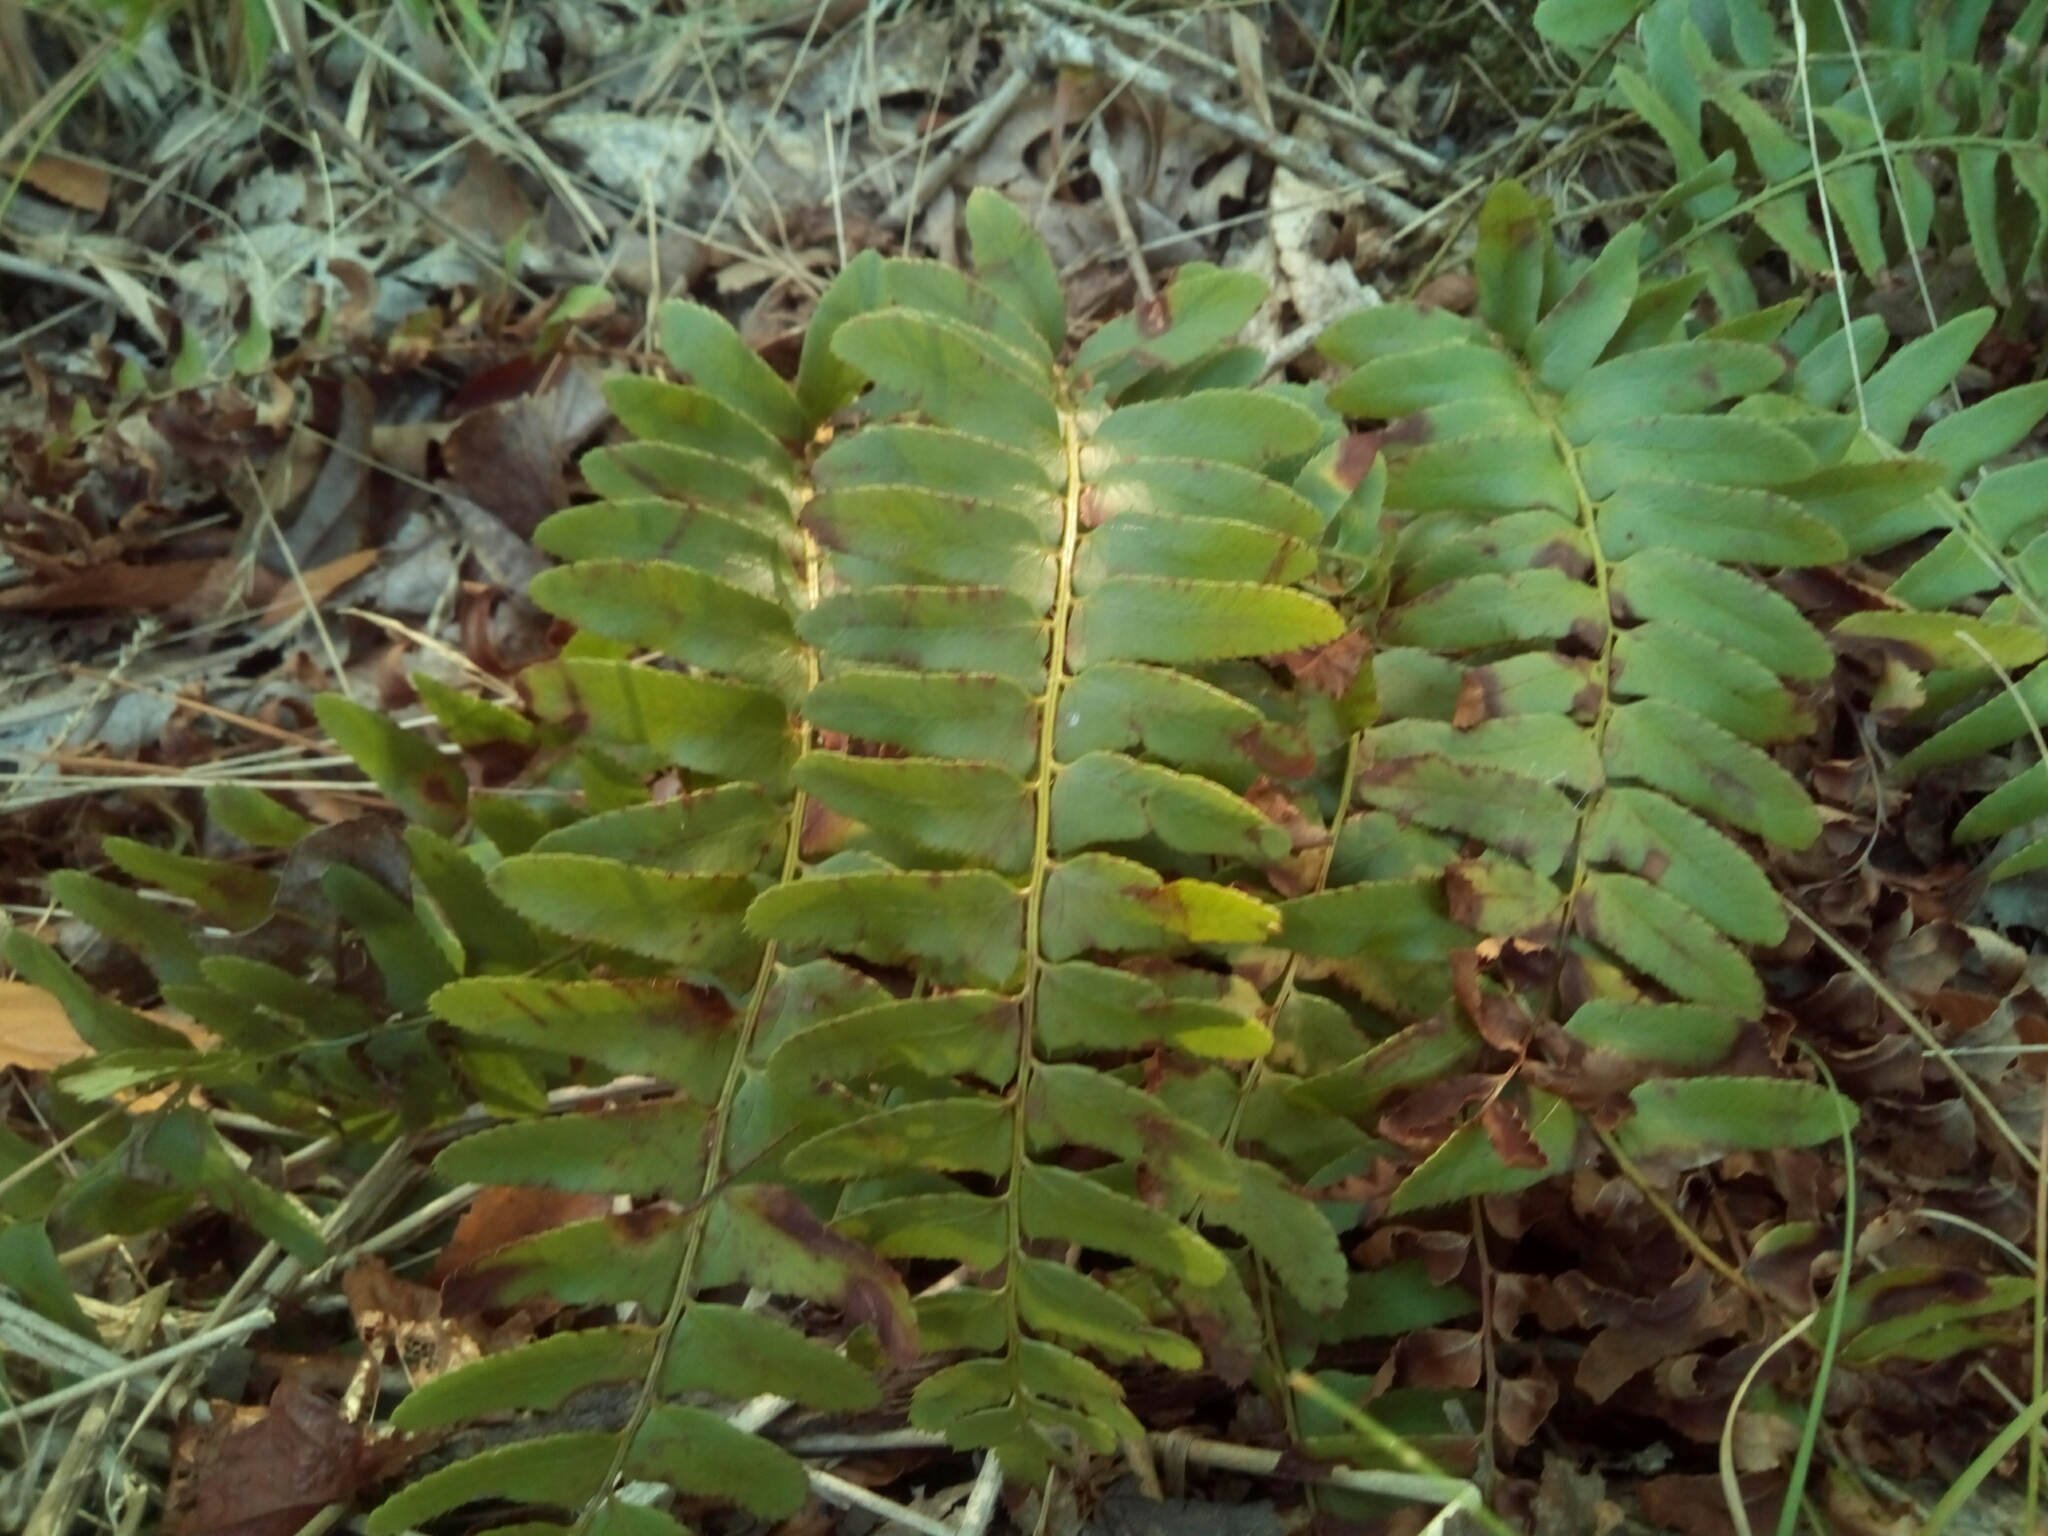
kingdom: Plantae
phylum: Tracheophyta
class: Polypodiopsida
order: Polypodiales
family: Dryopteridaceae
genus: Polystichum
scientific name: Polystichum acrostichoides
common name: Christmas fern
